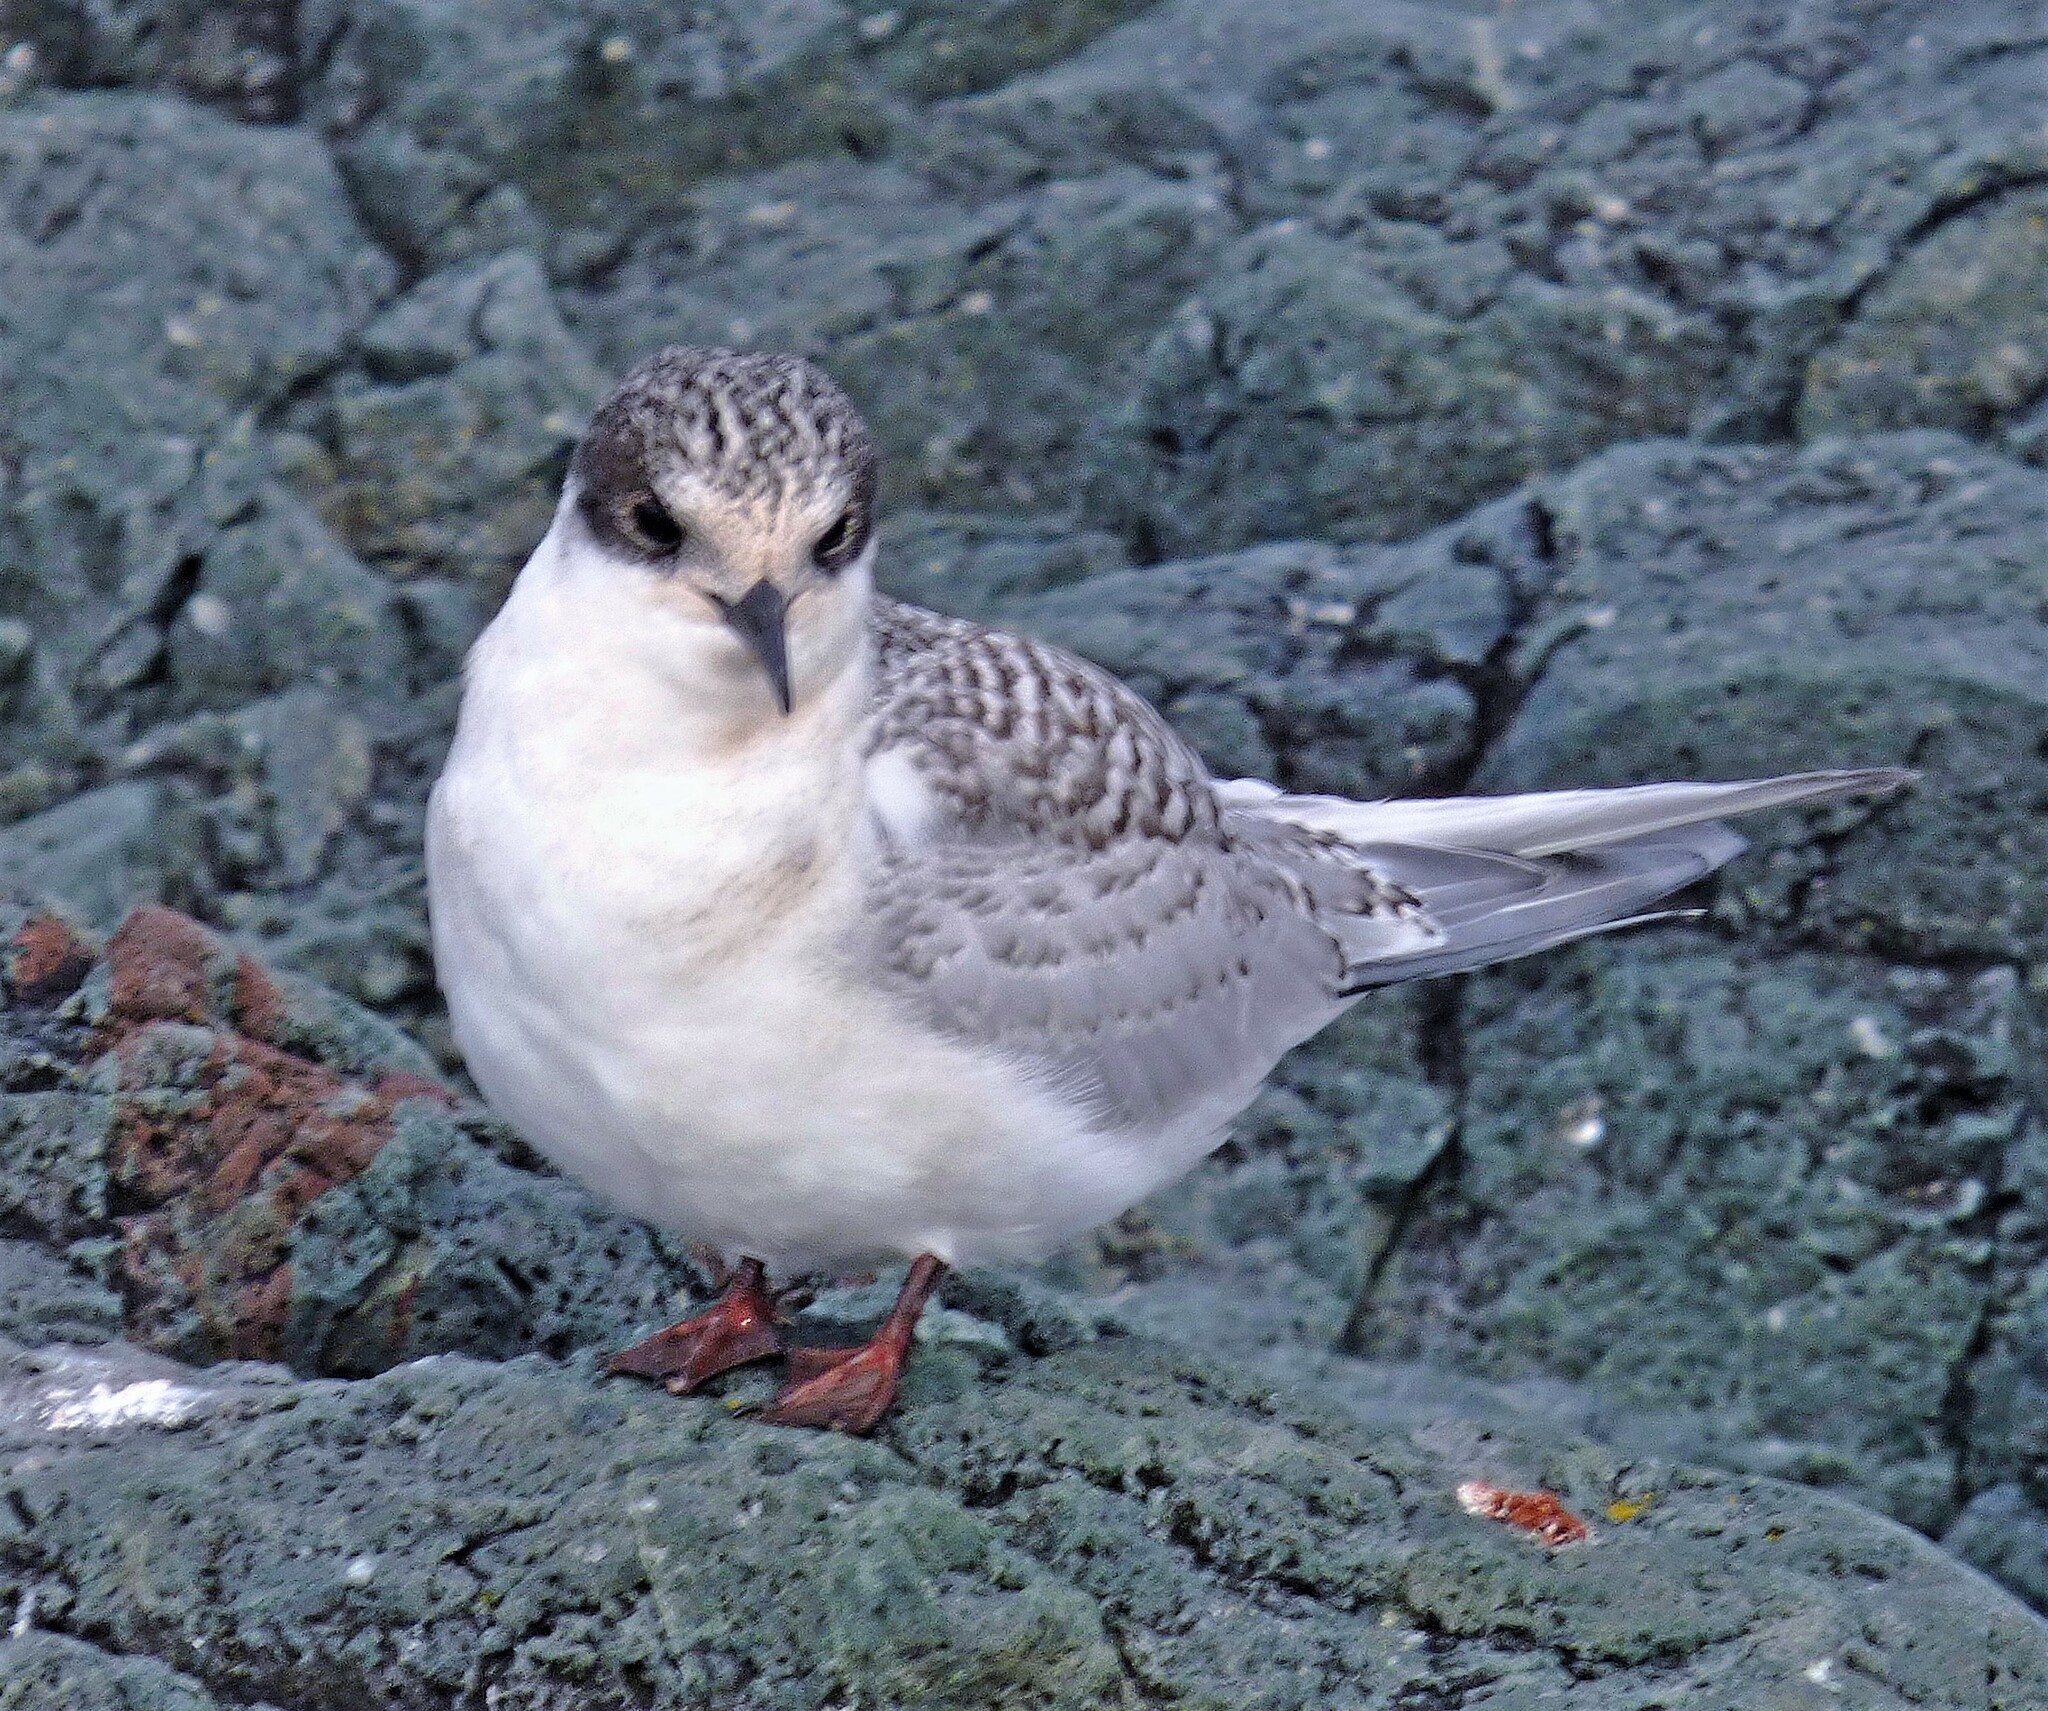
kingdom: Animalia
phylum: Chordata
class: Aves
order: Charadriiformes
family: Laridae
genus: Sterna
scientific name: Sterna vittata
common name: Antarctic tern
